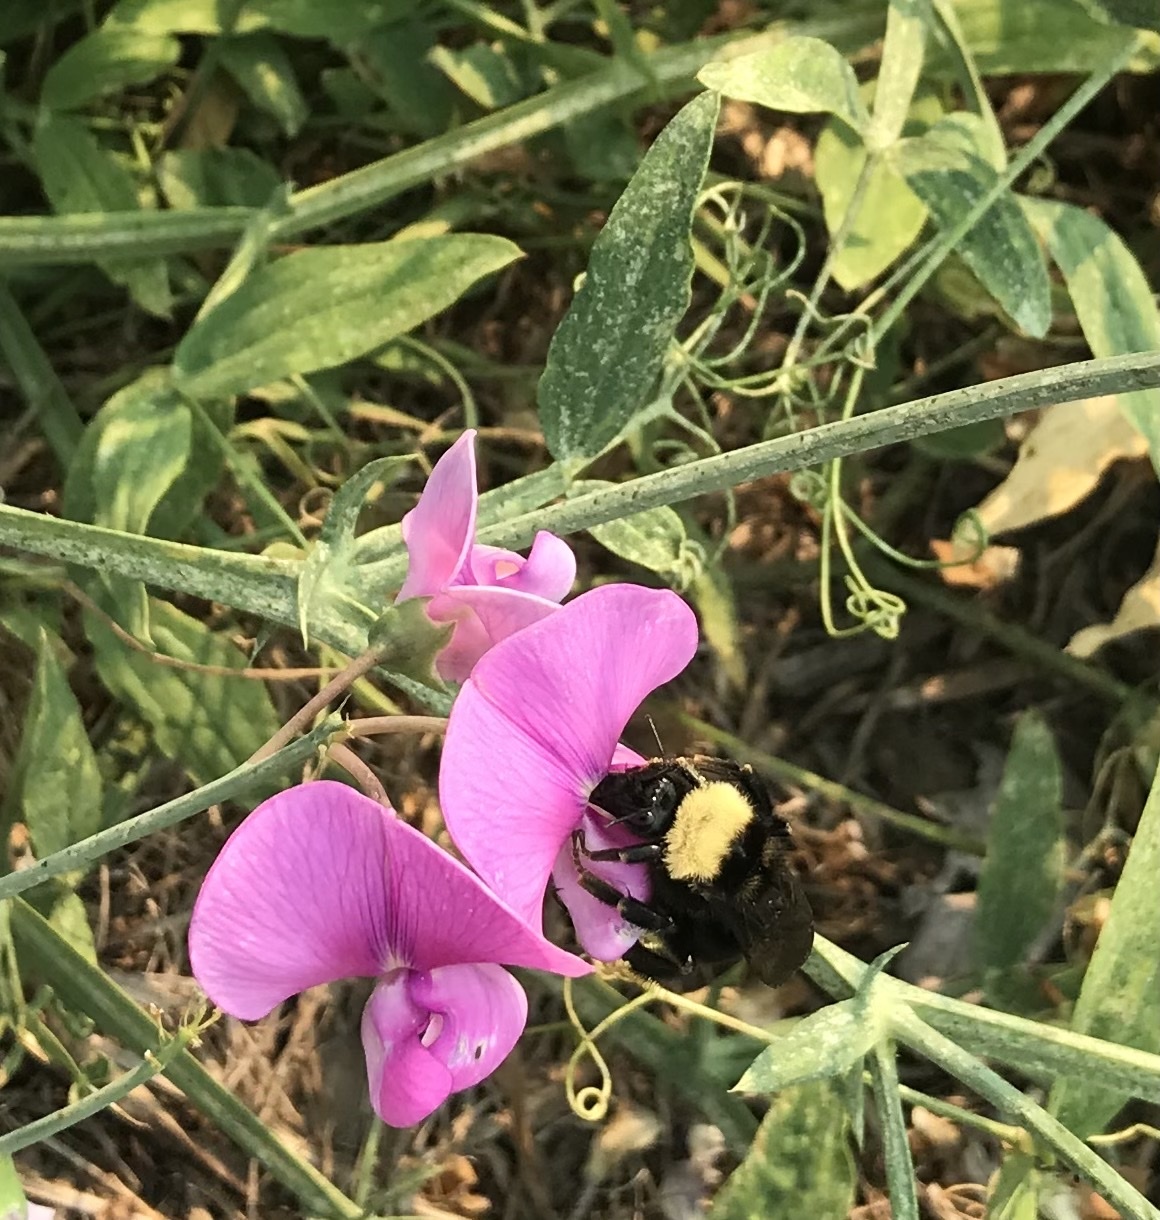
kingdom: Animalia
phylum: Arthropoda
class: Insecta
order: Hymenoptera
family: Apidae
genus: Bombus
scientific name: Bombus californicus
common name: California bumble bee
